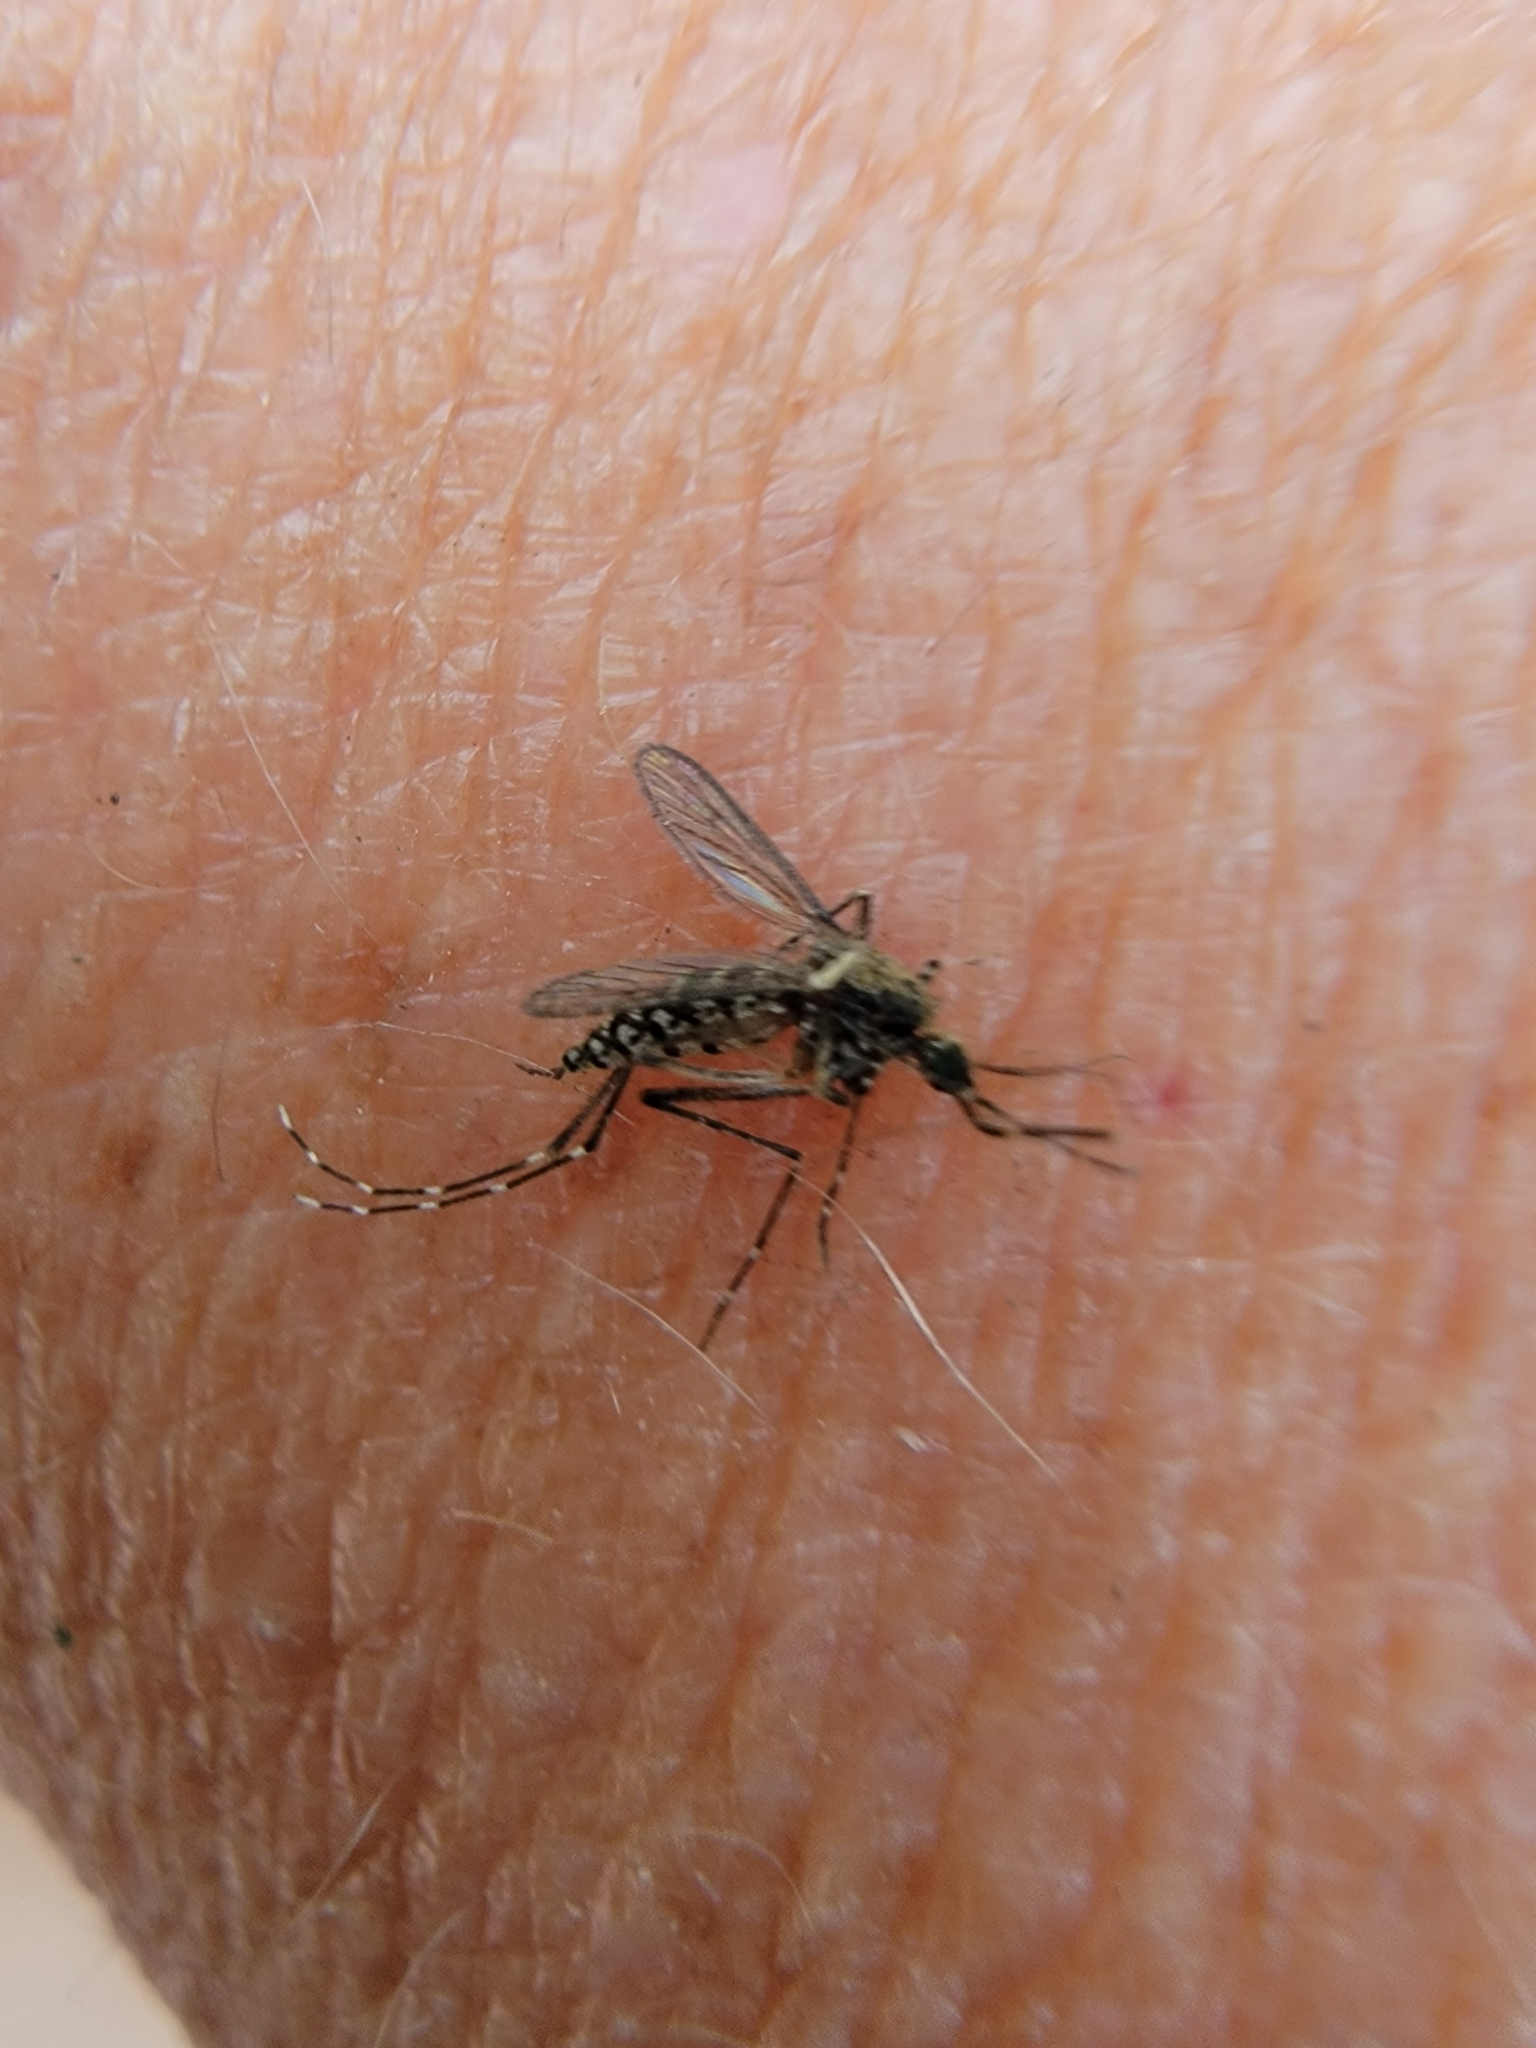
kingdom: Animalia
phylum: Arthropoda
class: Insecta
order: Diptera
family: Culicidae
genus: Aedes
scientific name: Aedes taeniorhynchus
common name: Black salt marsh mosquito
